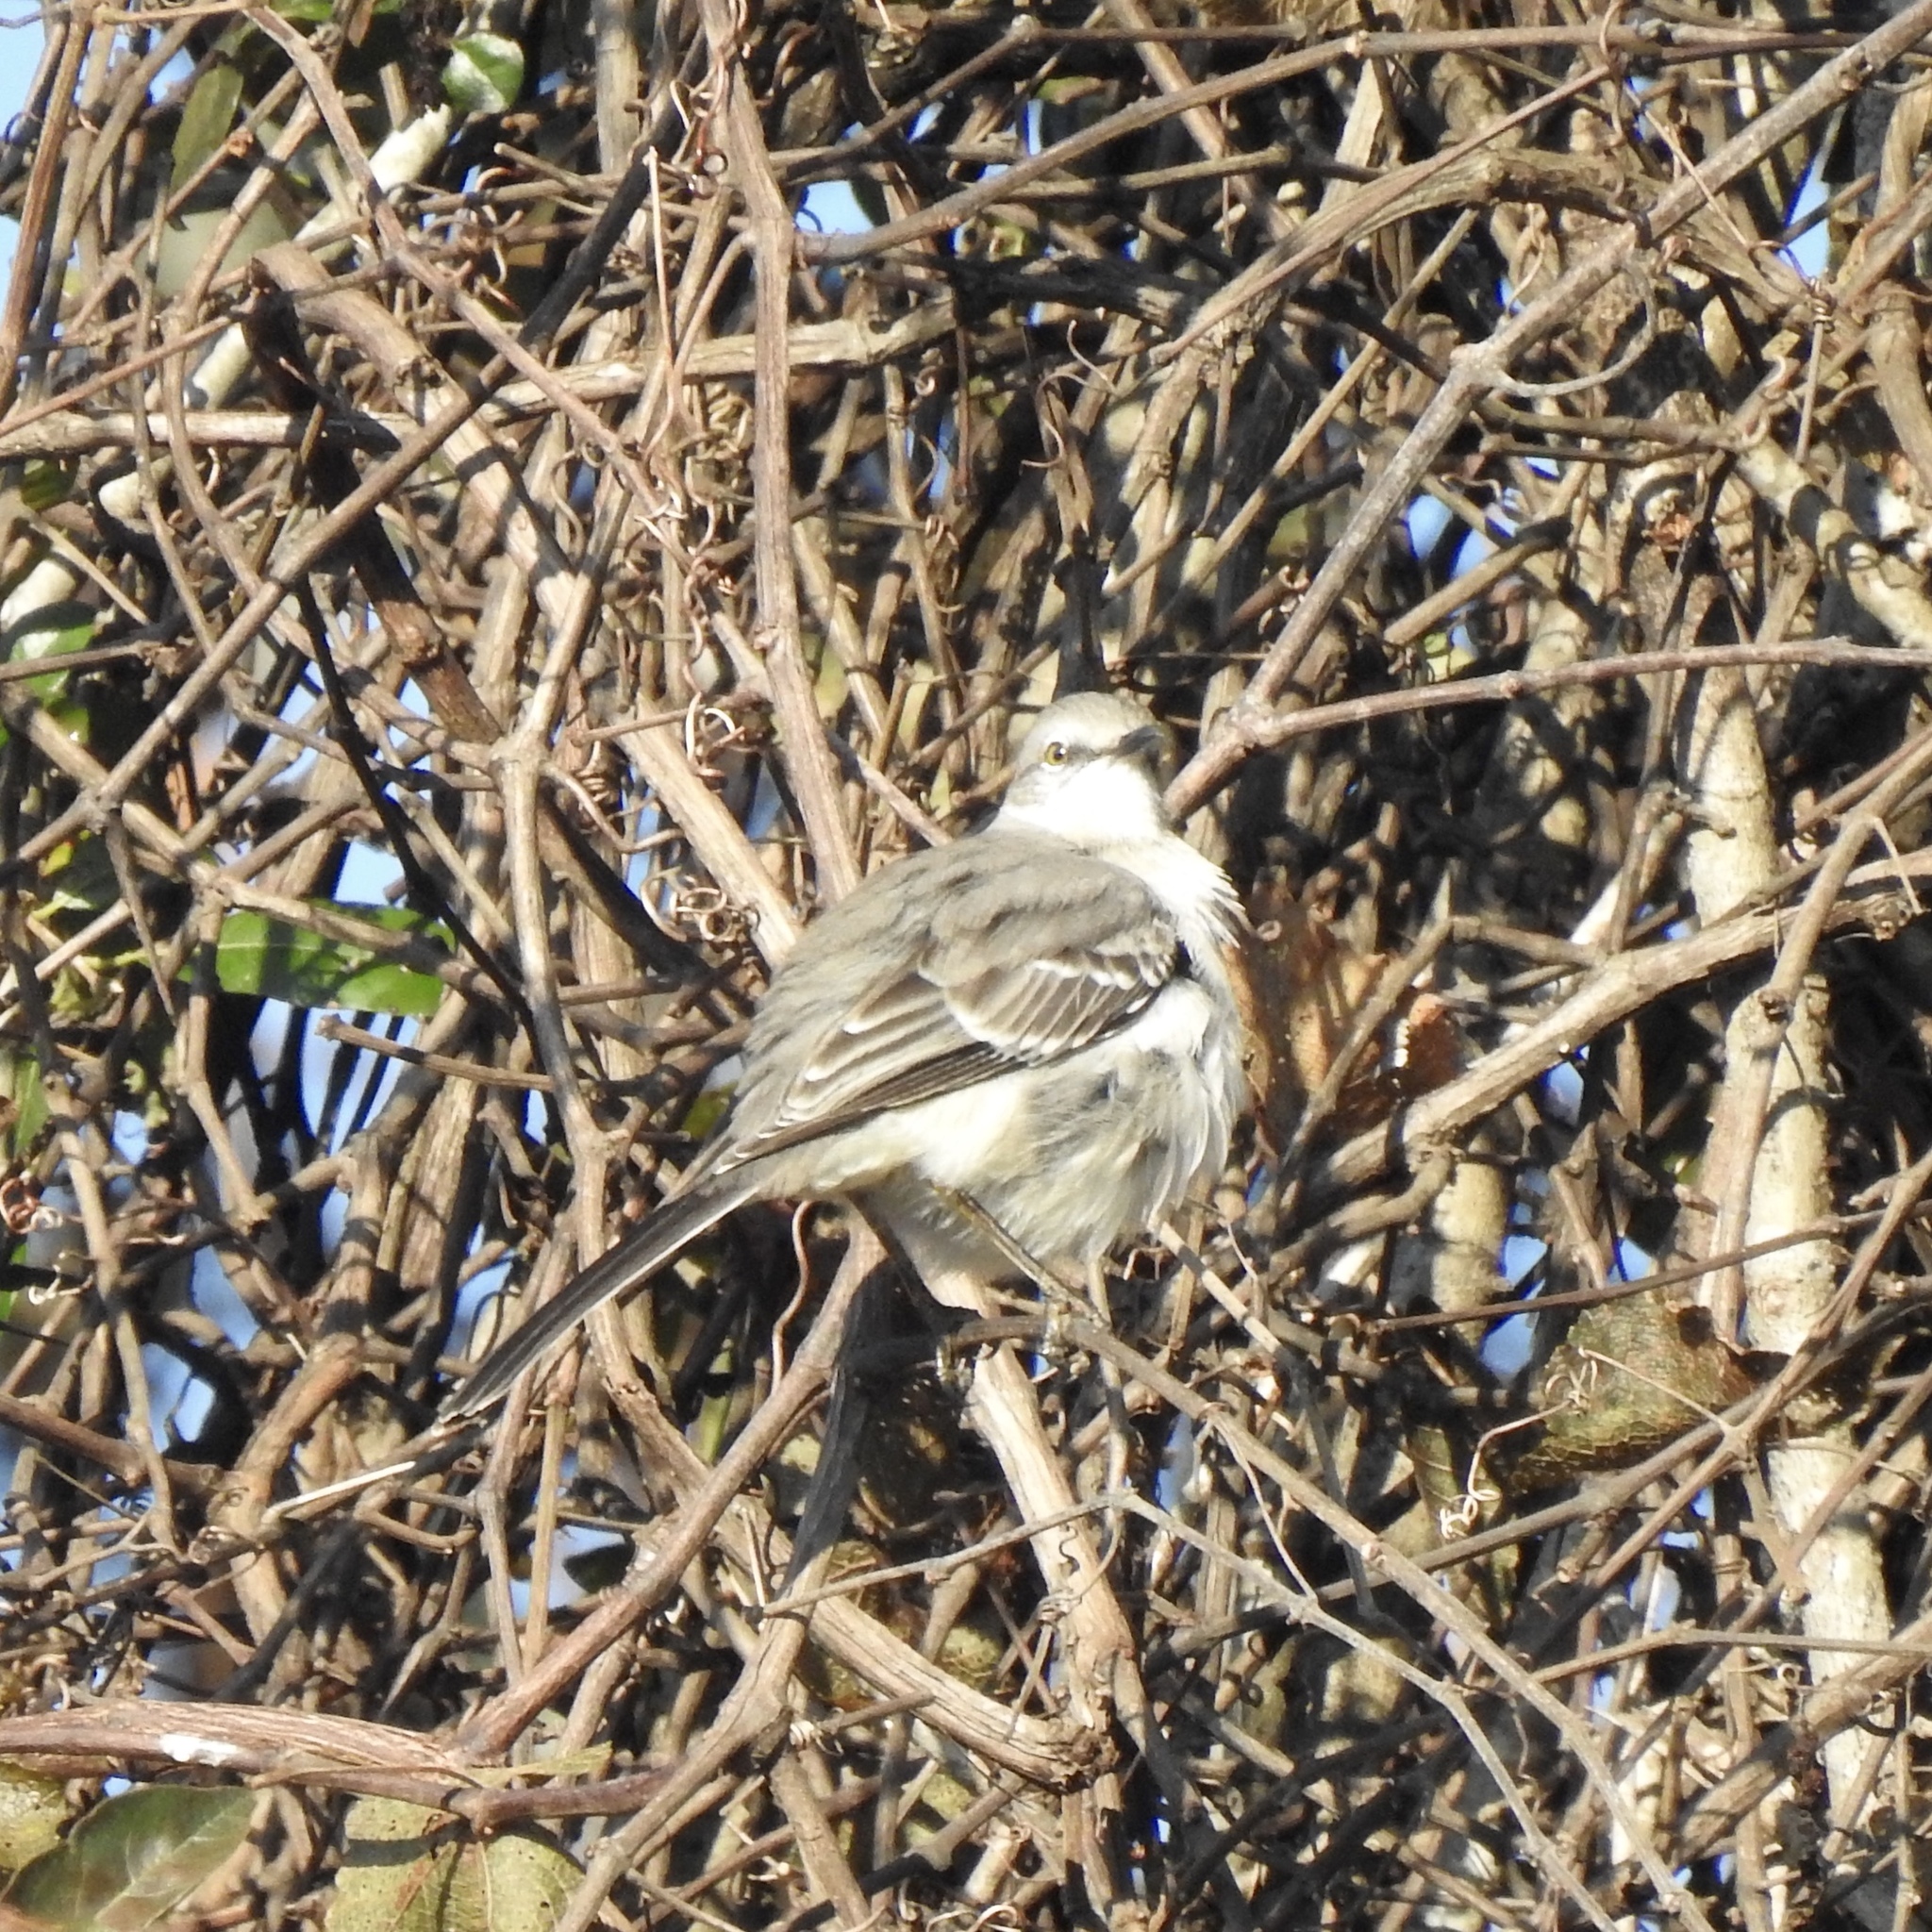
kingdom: Animalia
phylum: Chordata
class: Aves
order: Passeriformes
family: Mimidae
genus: Mimus
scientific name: Mimus polyglottos
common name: Northern mockingbird
